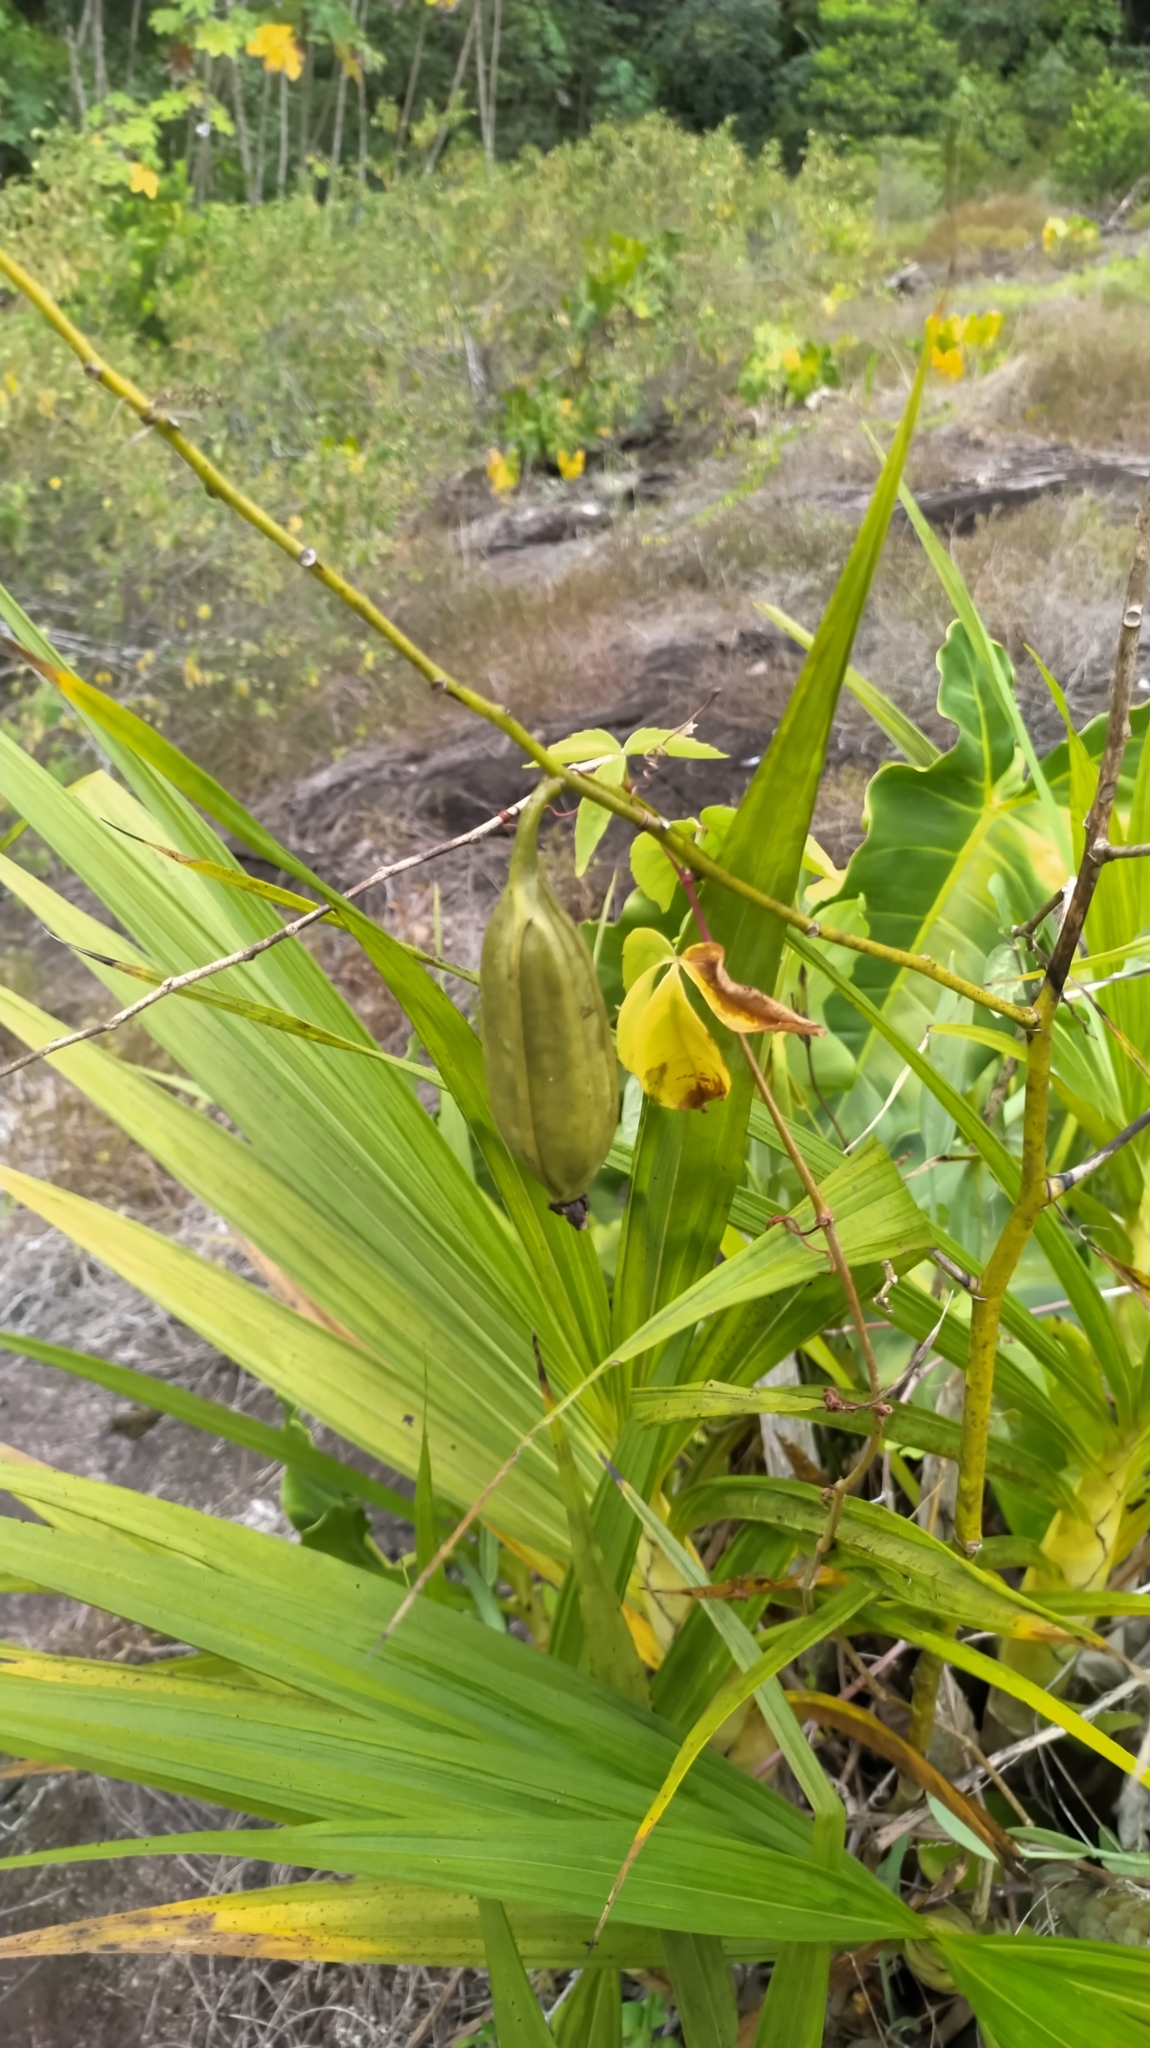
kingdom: Plantae
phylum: Tracheophyta
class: Liliopsida
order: Asparagales
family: Orchidaceae
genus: Cyrtopodium
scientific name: Cyrtopodium andersonii
